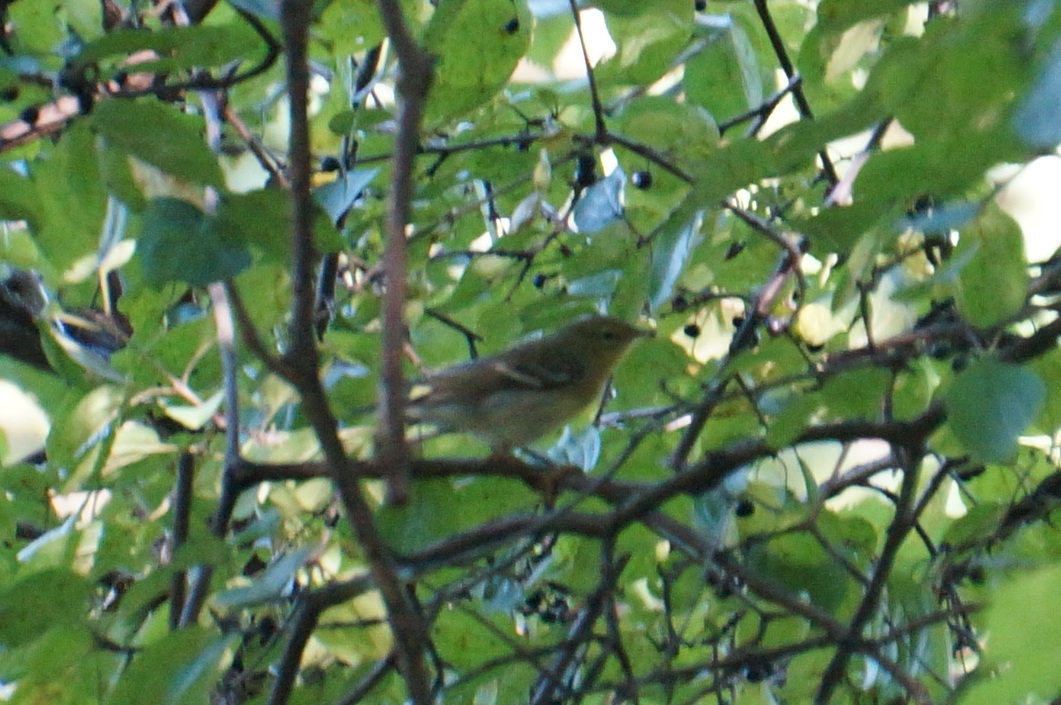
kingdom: Animalia
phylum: Chordata
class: Aves
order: Passeriformes
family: Parulidae
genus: Setophaga
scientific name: Setophaga striata
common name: Blackpoll warbler
